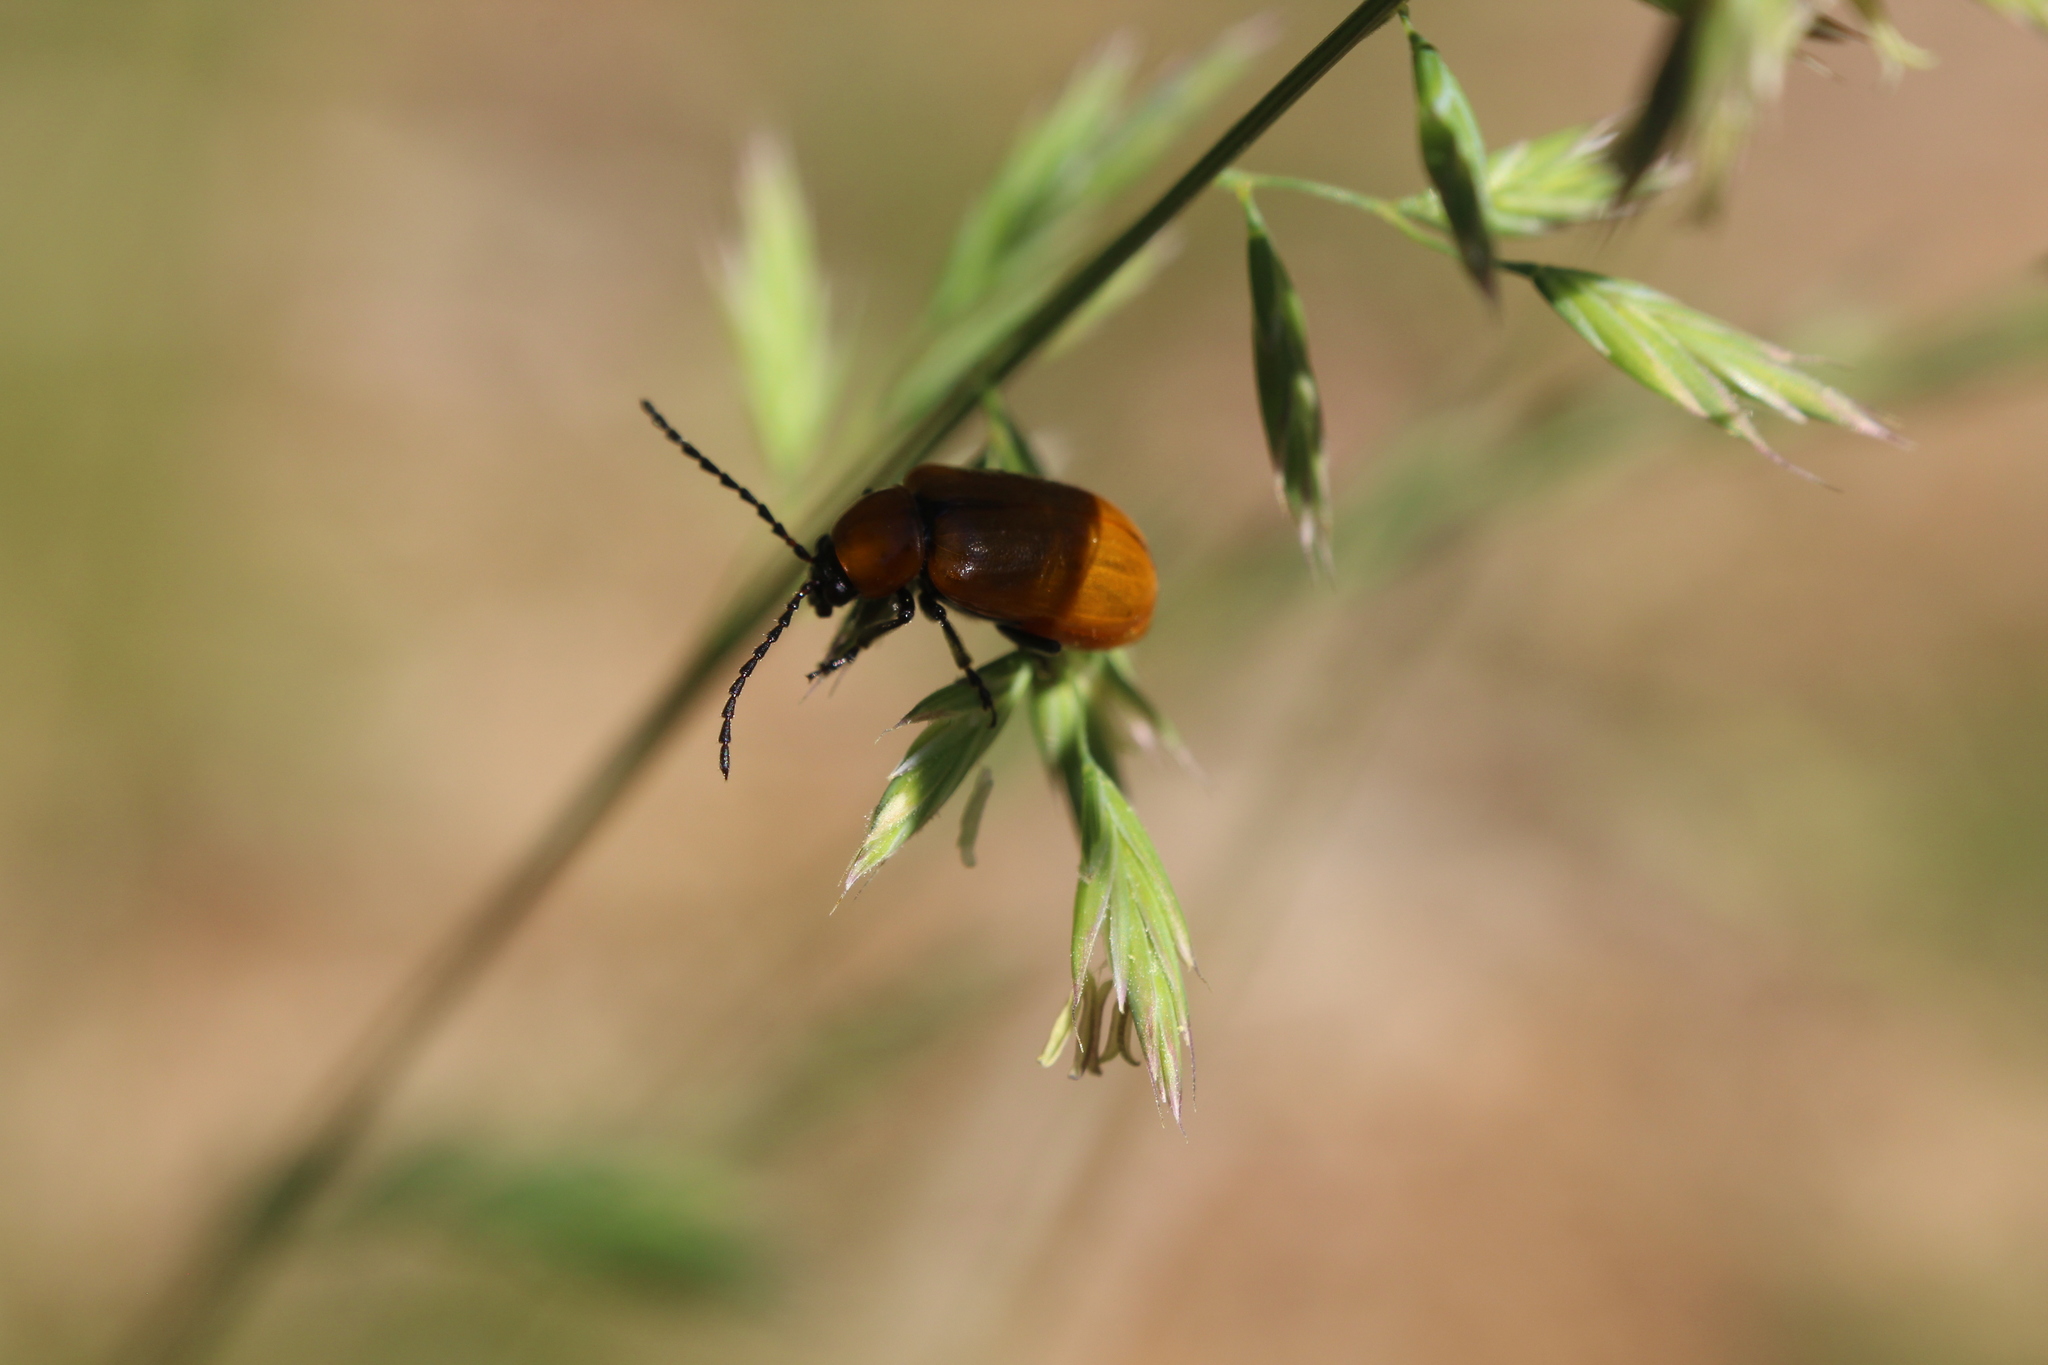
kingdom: Animalia
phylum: Arthropoda
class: Insecta
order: Coleoptera
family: Chrysomelidae
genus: Exosoma
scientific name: Exosoma lusitanicum
